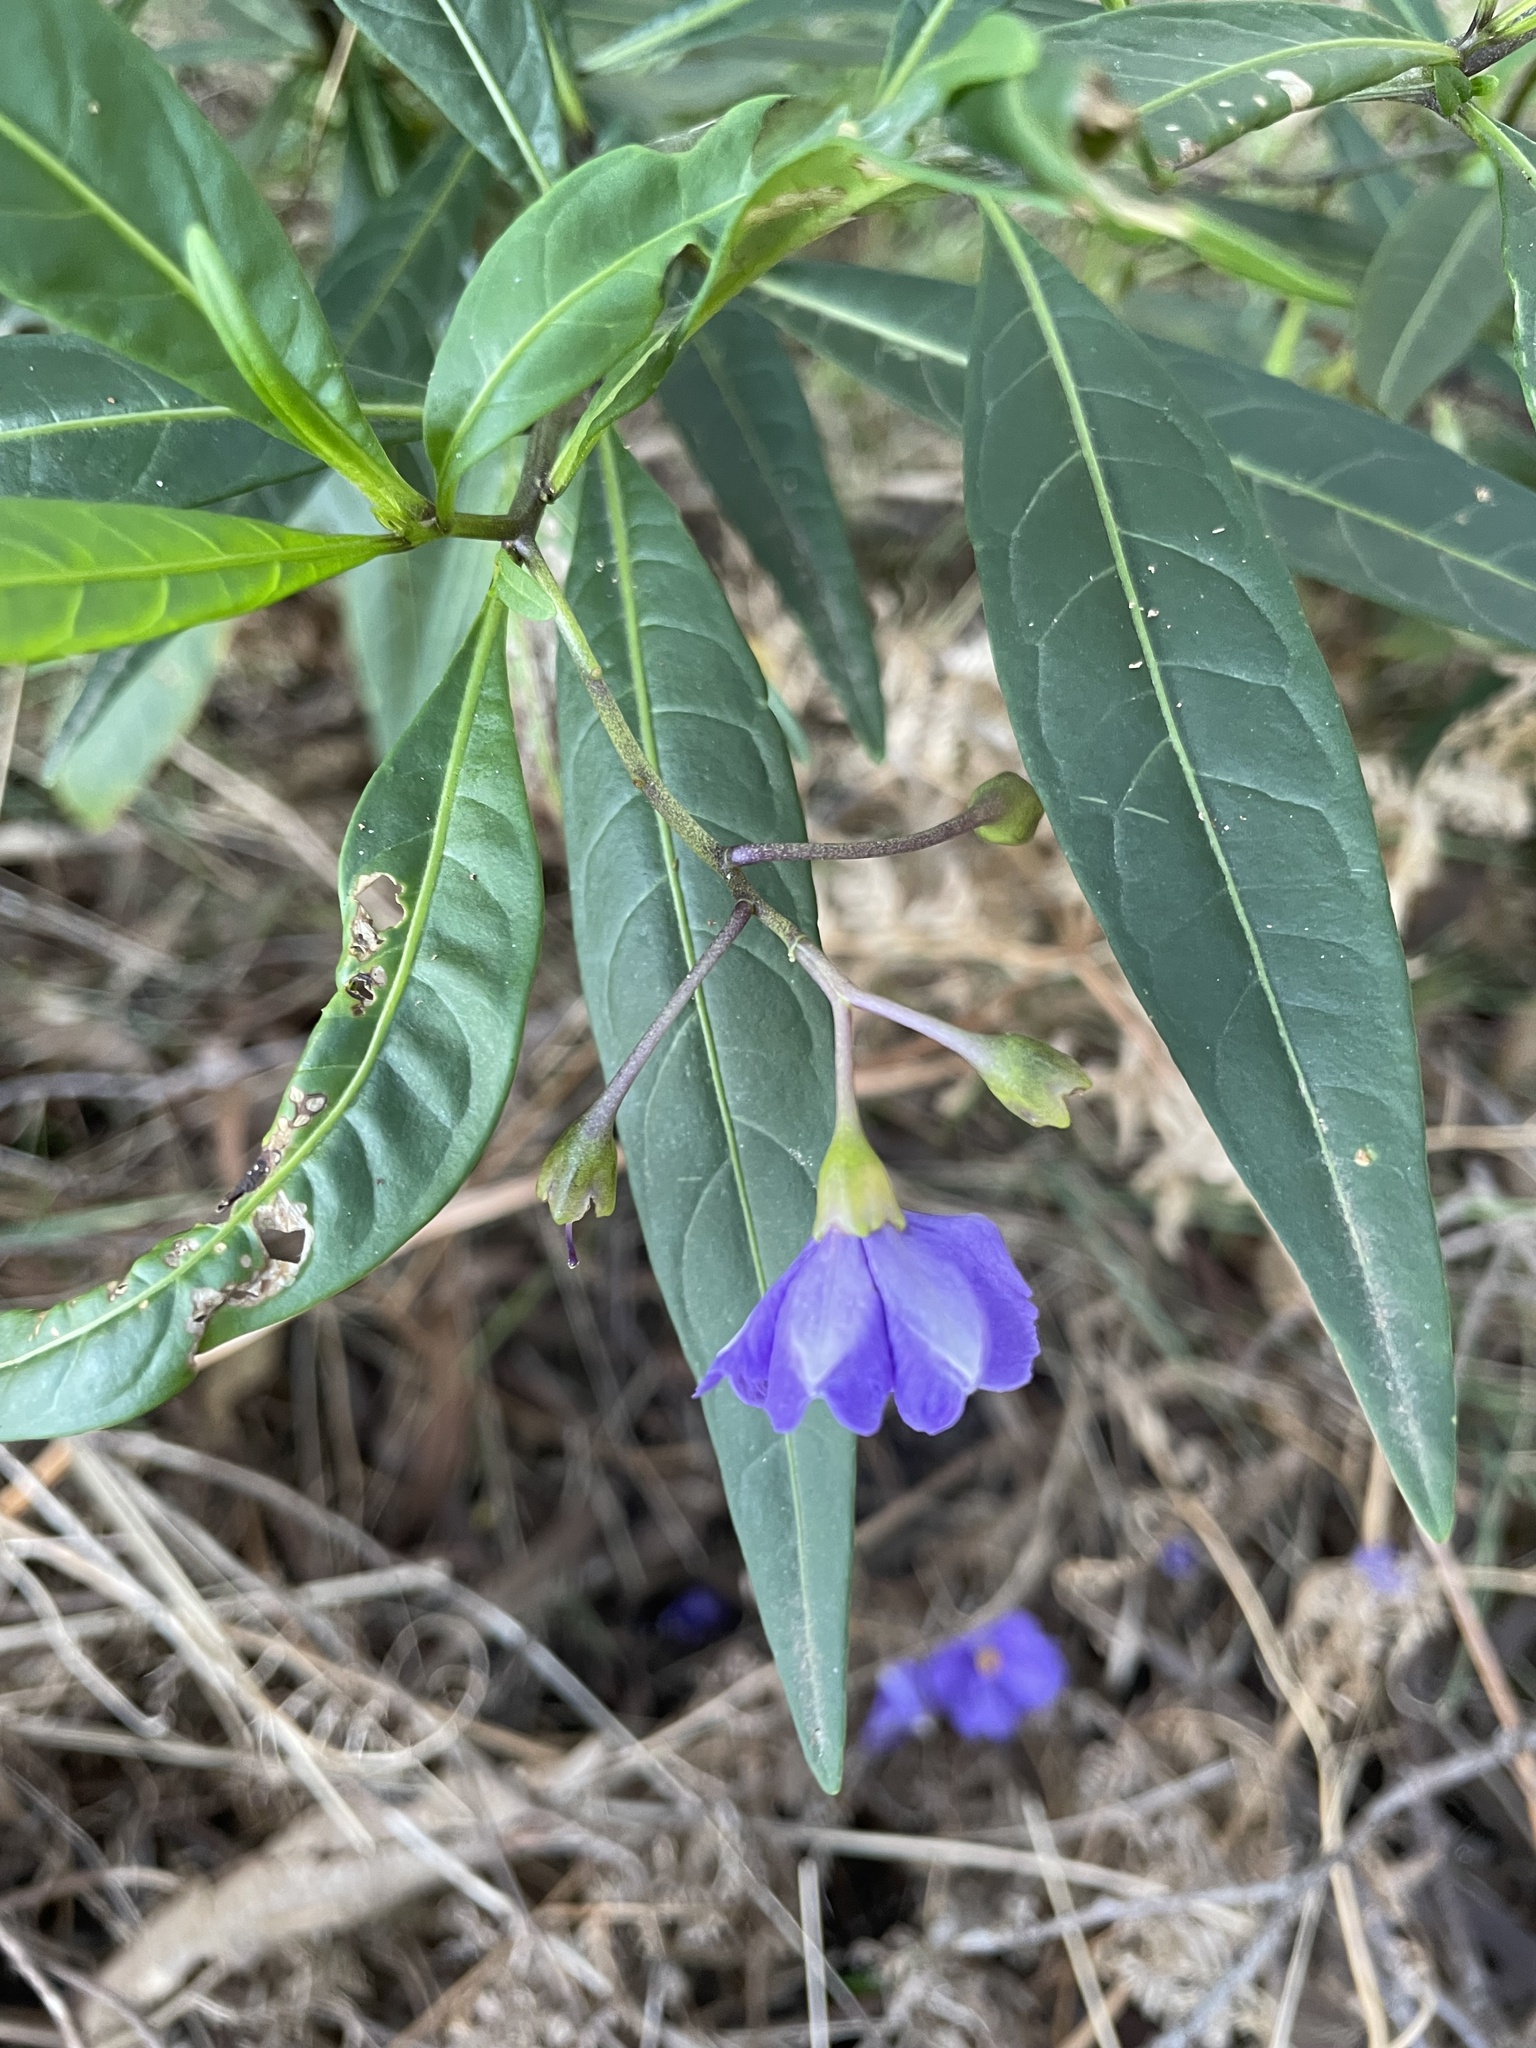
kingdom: Plantae
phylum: Tracheophyta
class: Magnoliopsida
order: Solanales
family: Solanaceae
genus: Solanum
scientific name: Solanum laciniatum
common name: Kangaroo-apple
